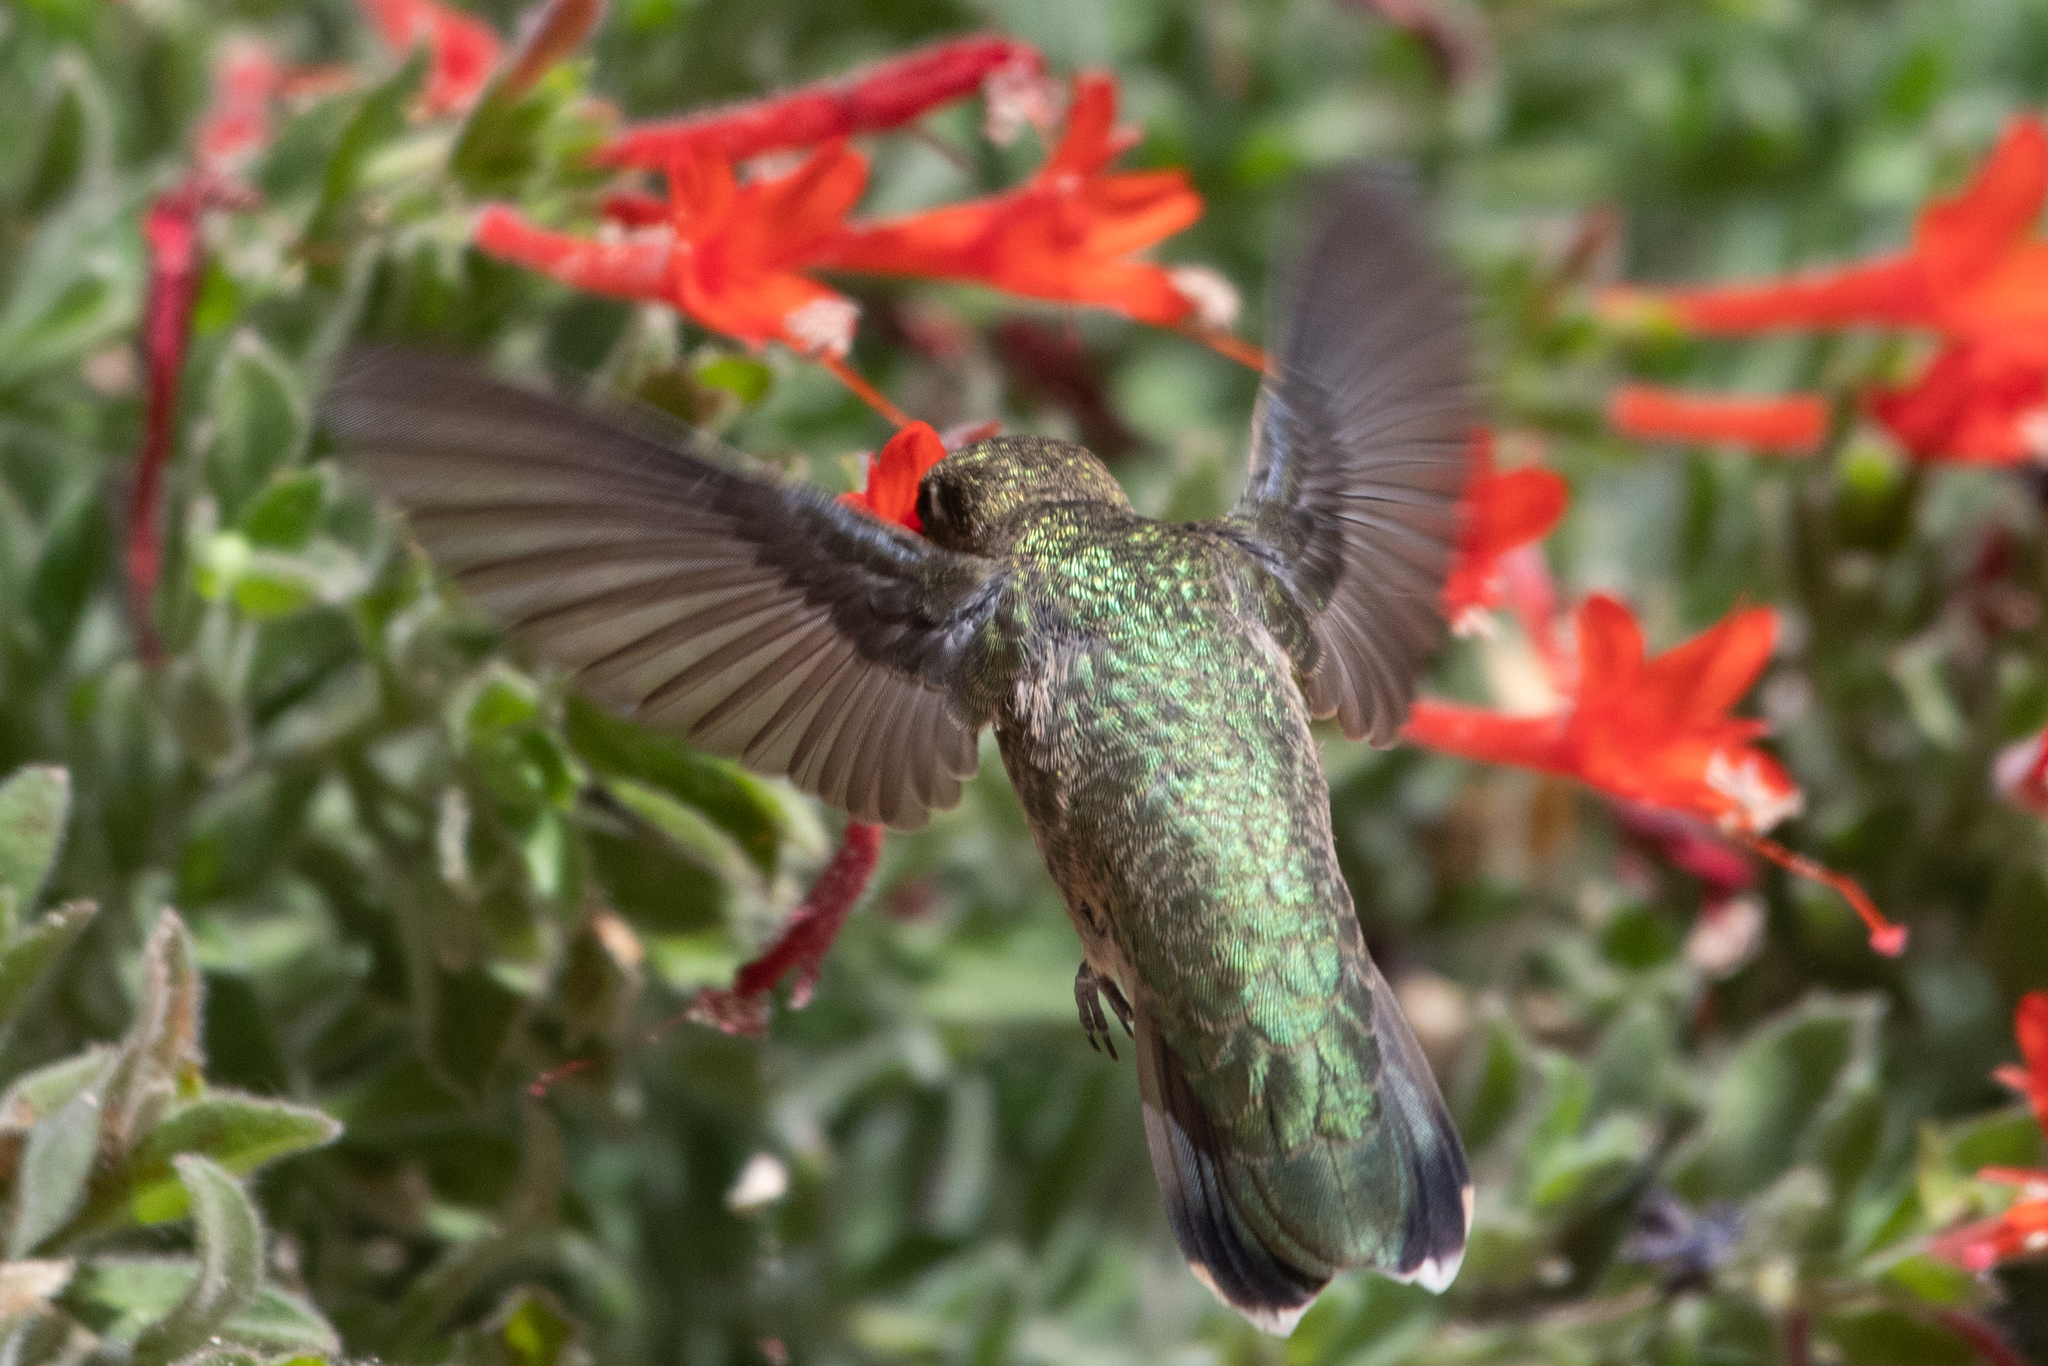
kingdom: Animalia
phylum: Chordata
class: Aves
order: Apodiformes
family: Trochilidae
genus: Calypte
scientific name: Calypte anna
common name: Anna's hummingbird
